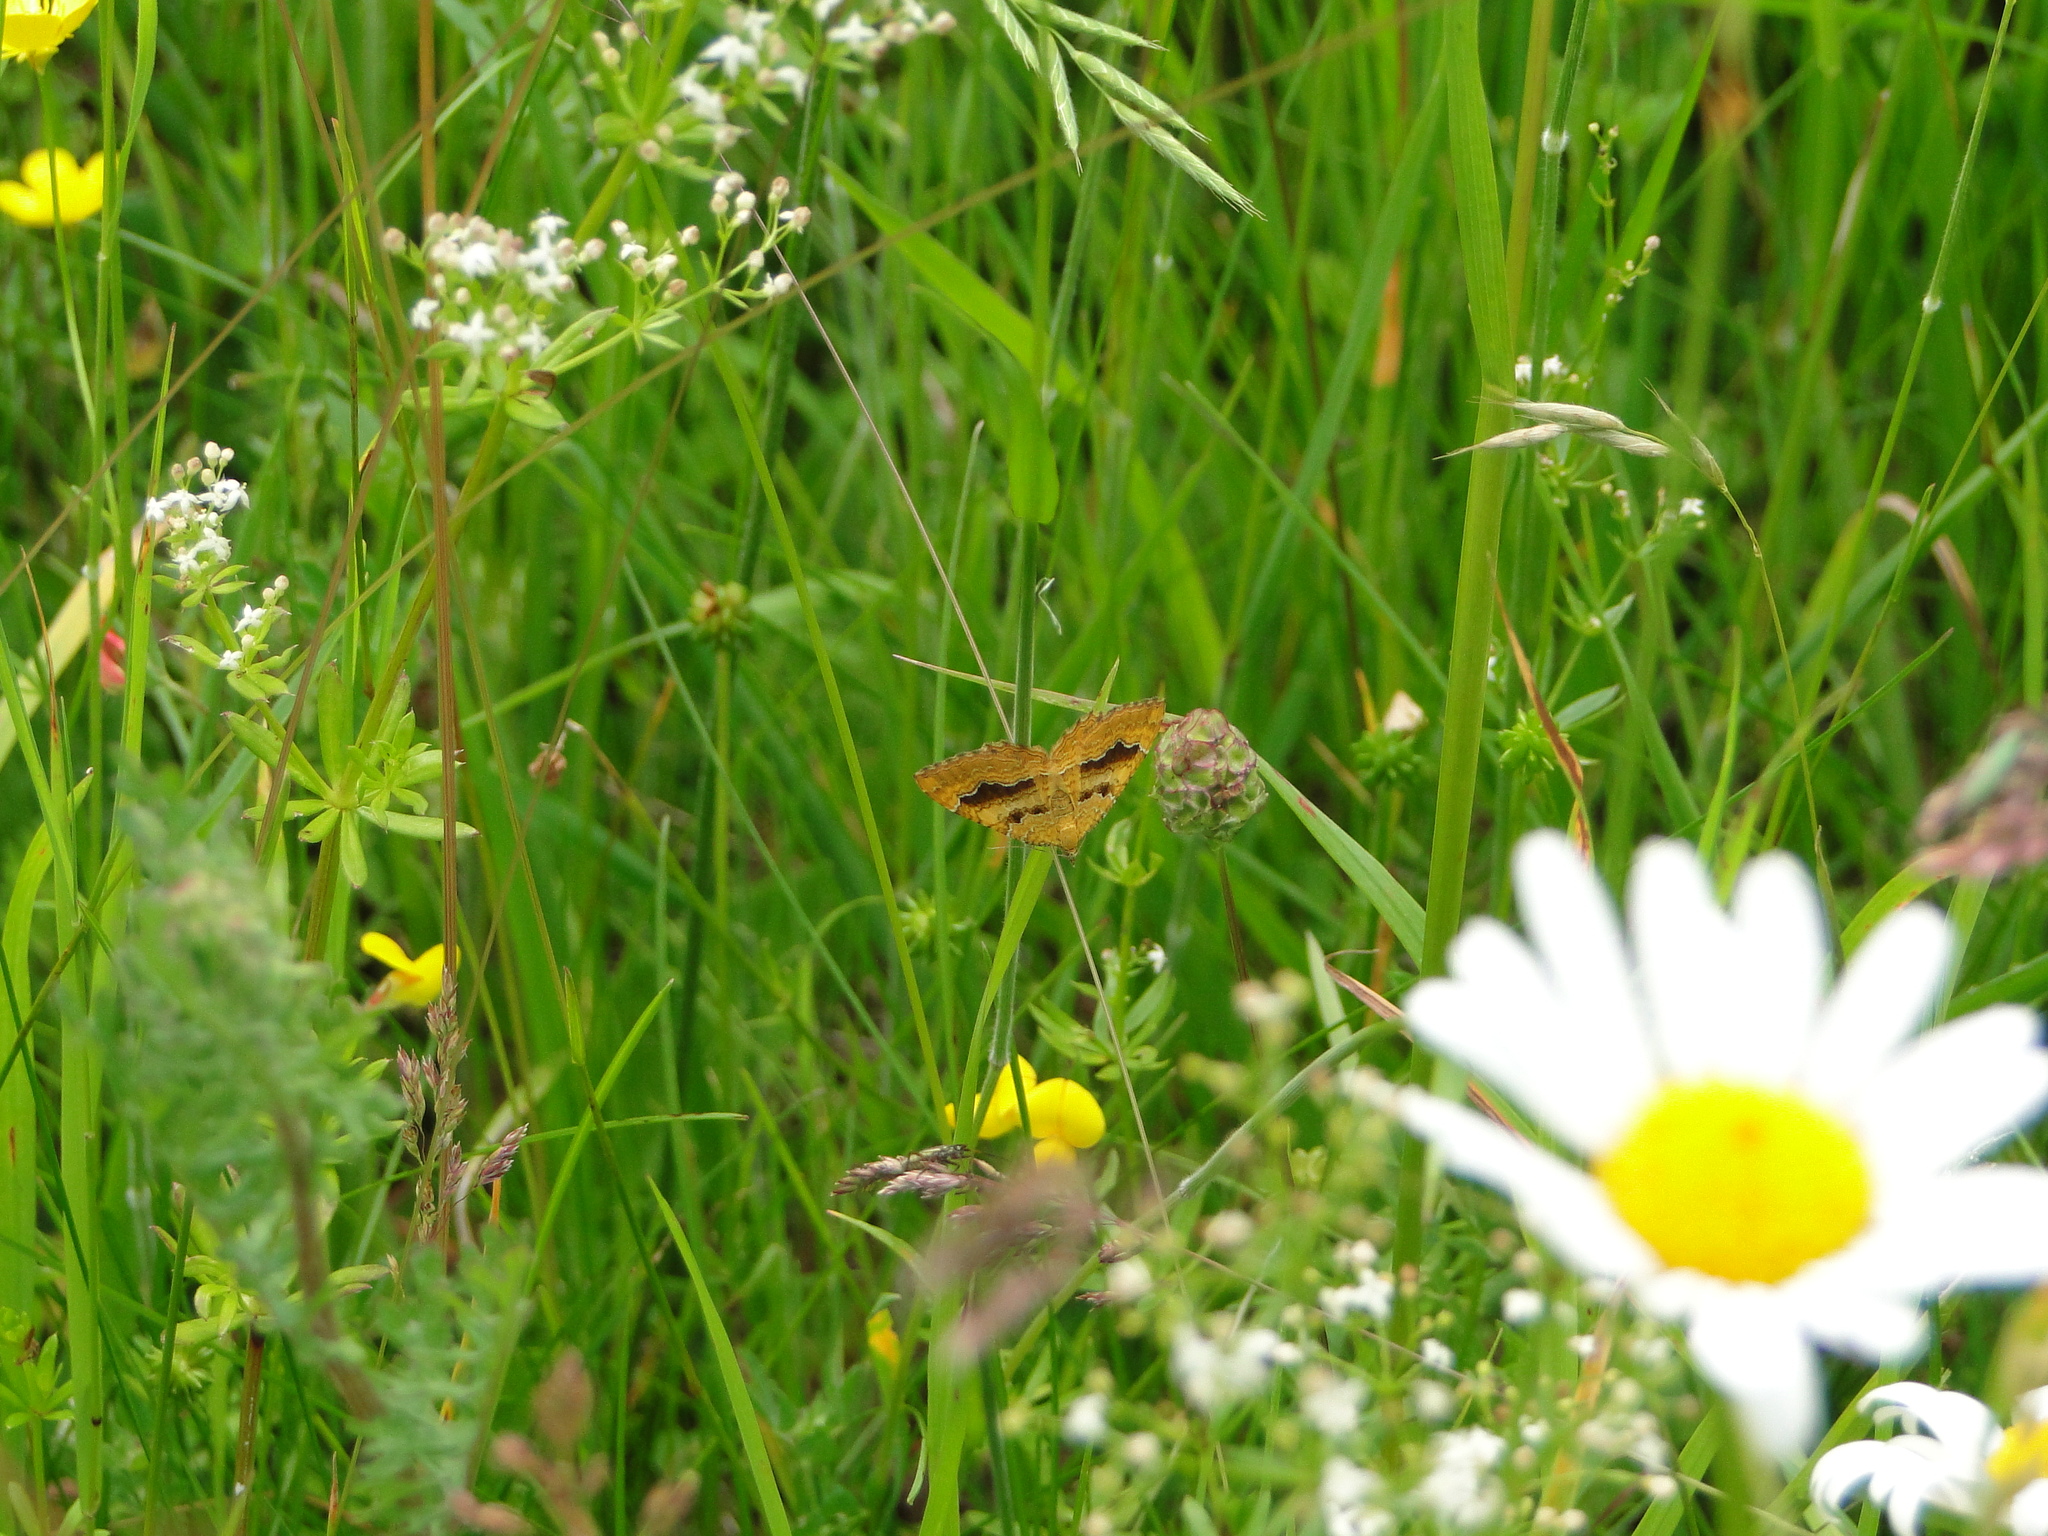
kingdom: Animalia
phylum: Arthropoda
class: Insecta
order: Lepidoptera
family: Geometridae
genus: Camptogramma
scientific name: Camptogramma bilineata
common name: Yellow shell
